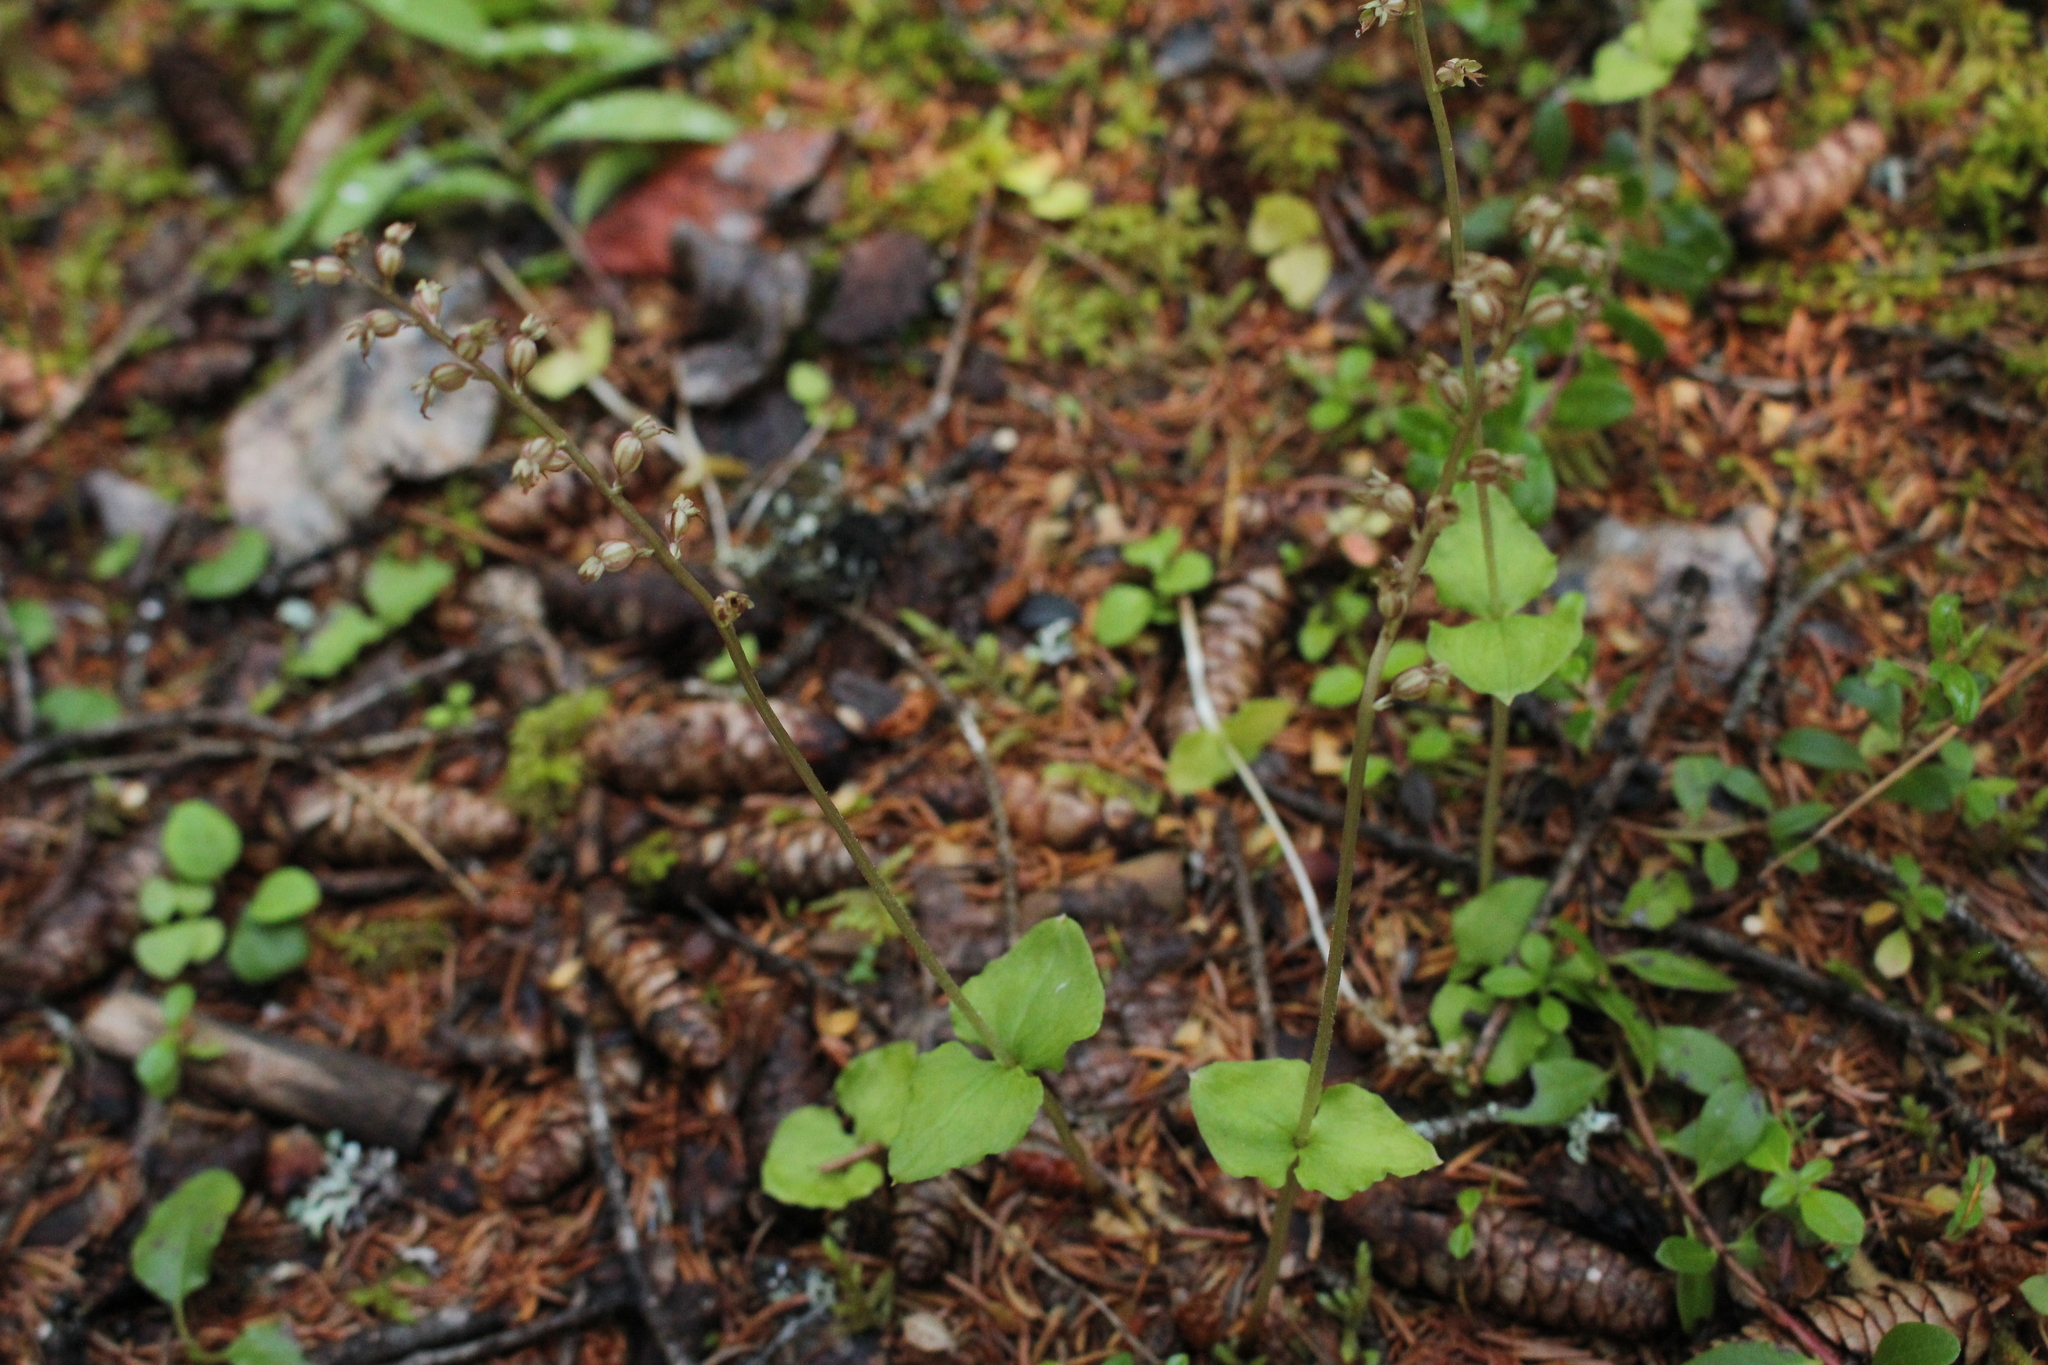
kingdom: Plantae
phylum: Tracheophyta
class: Liliopsida
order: Asparagales
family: Orchidaceae
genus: Neottia
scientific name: Neottia cordata
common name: Lesser twayblade
